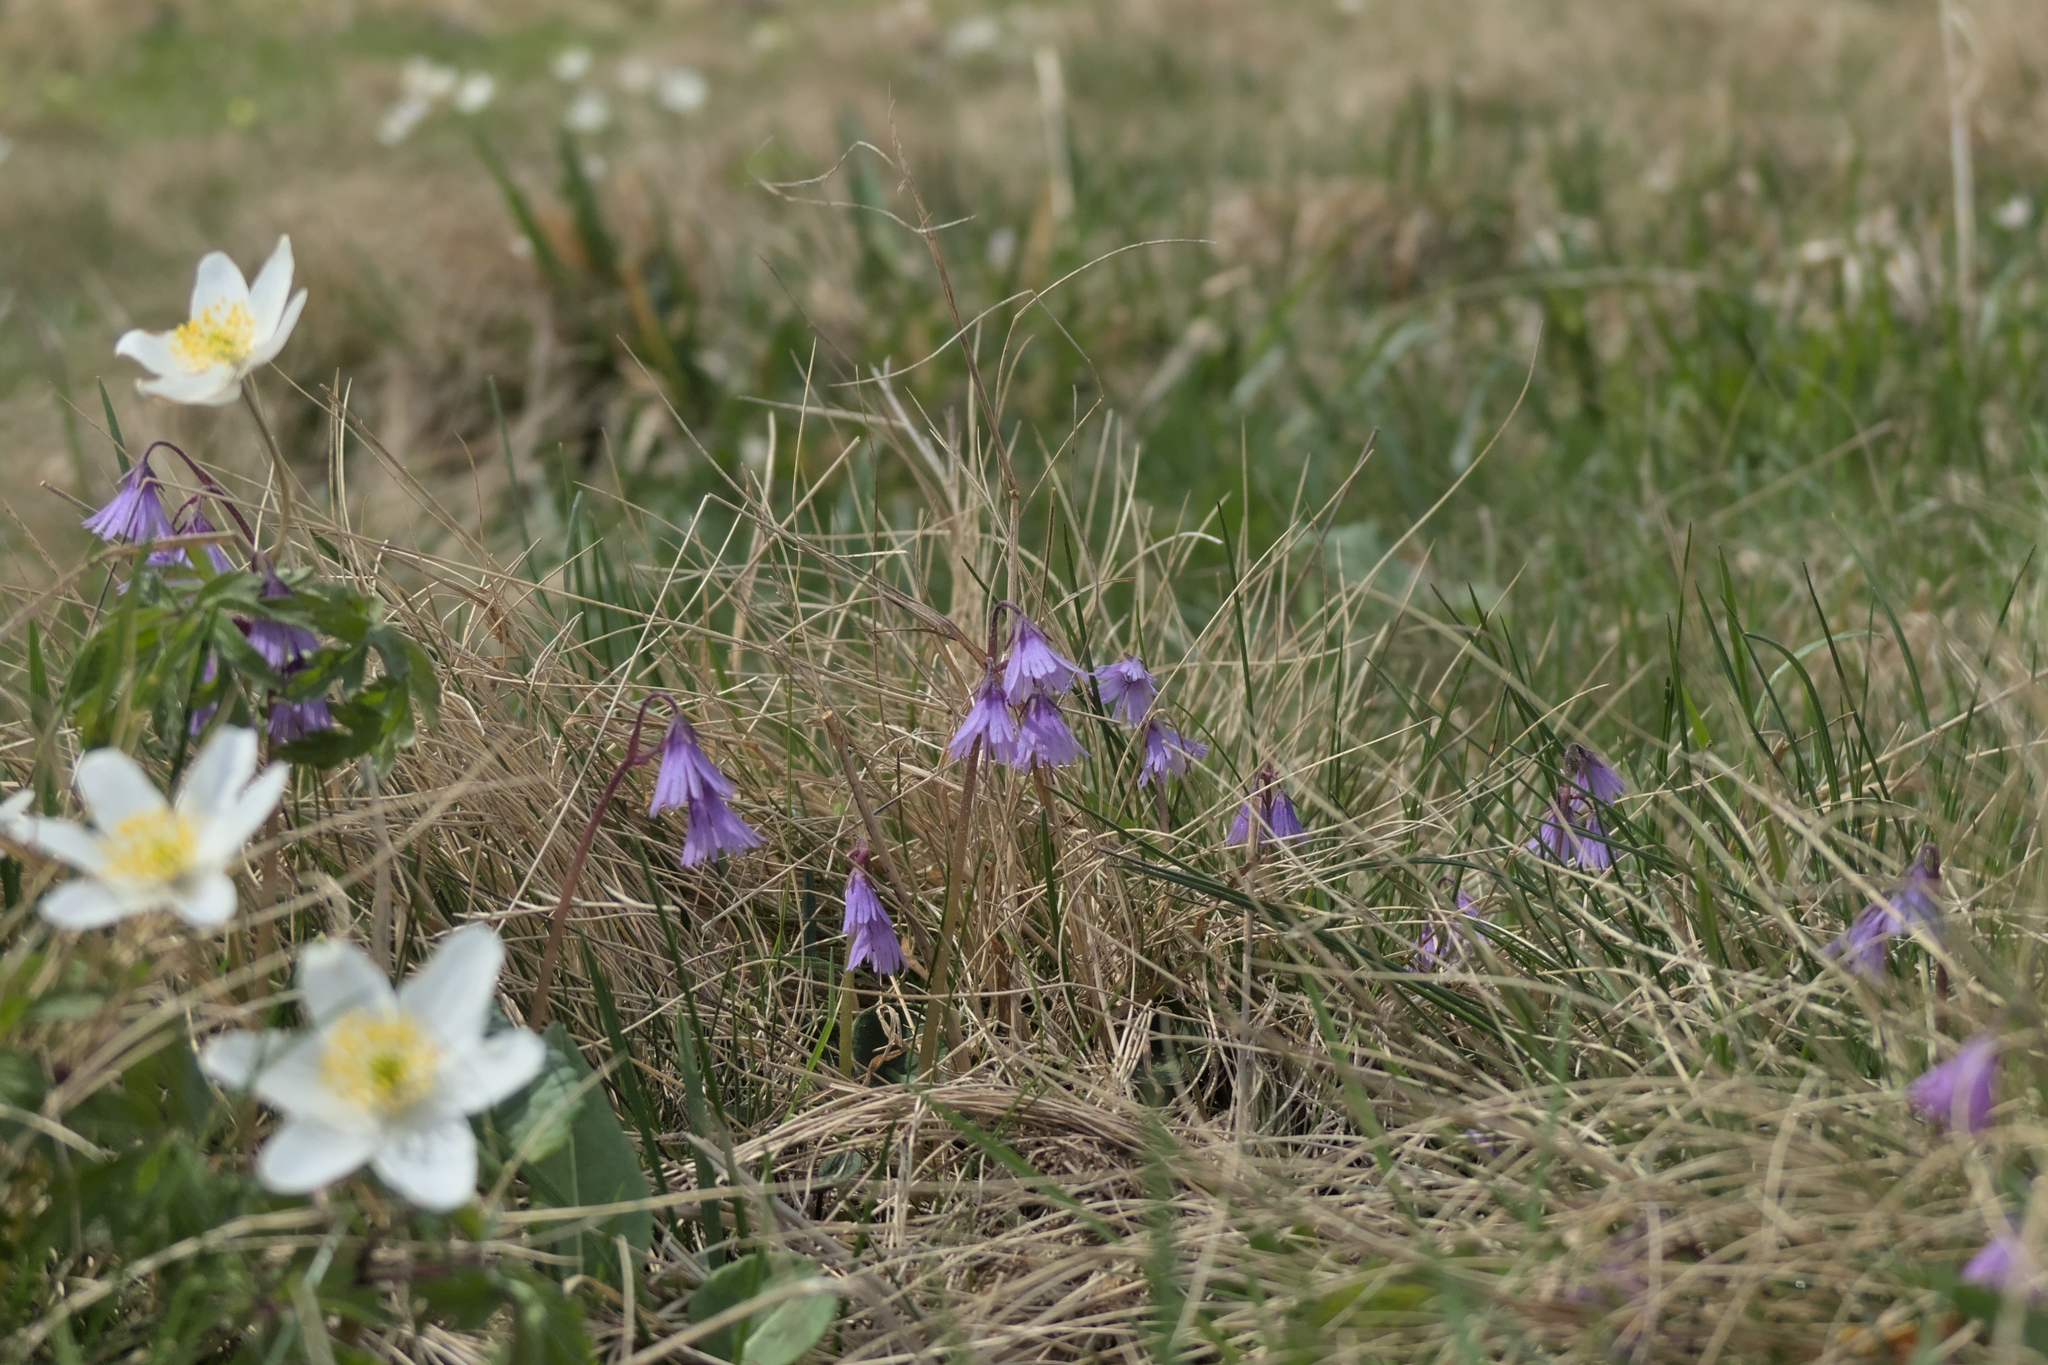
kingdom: Plantae
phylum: Tracheophyta
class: Magnoliopsida
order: Ericales
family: Primulaceae
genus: Soldanella
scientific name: Soldanella carpatica
